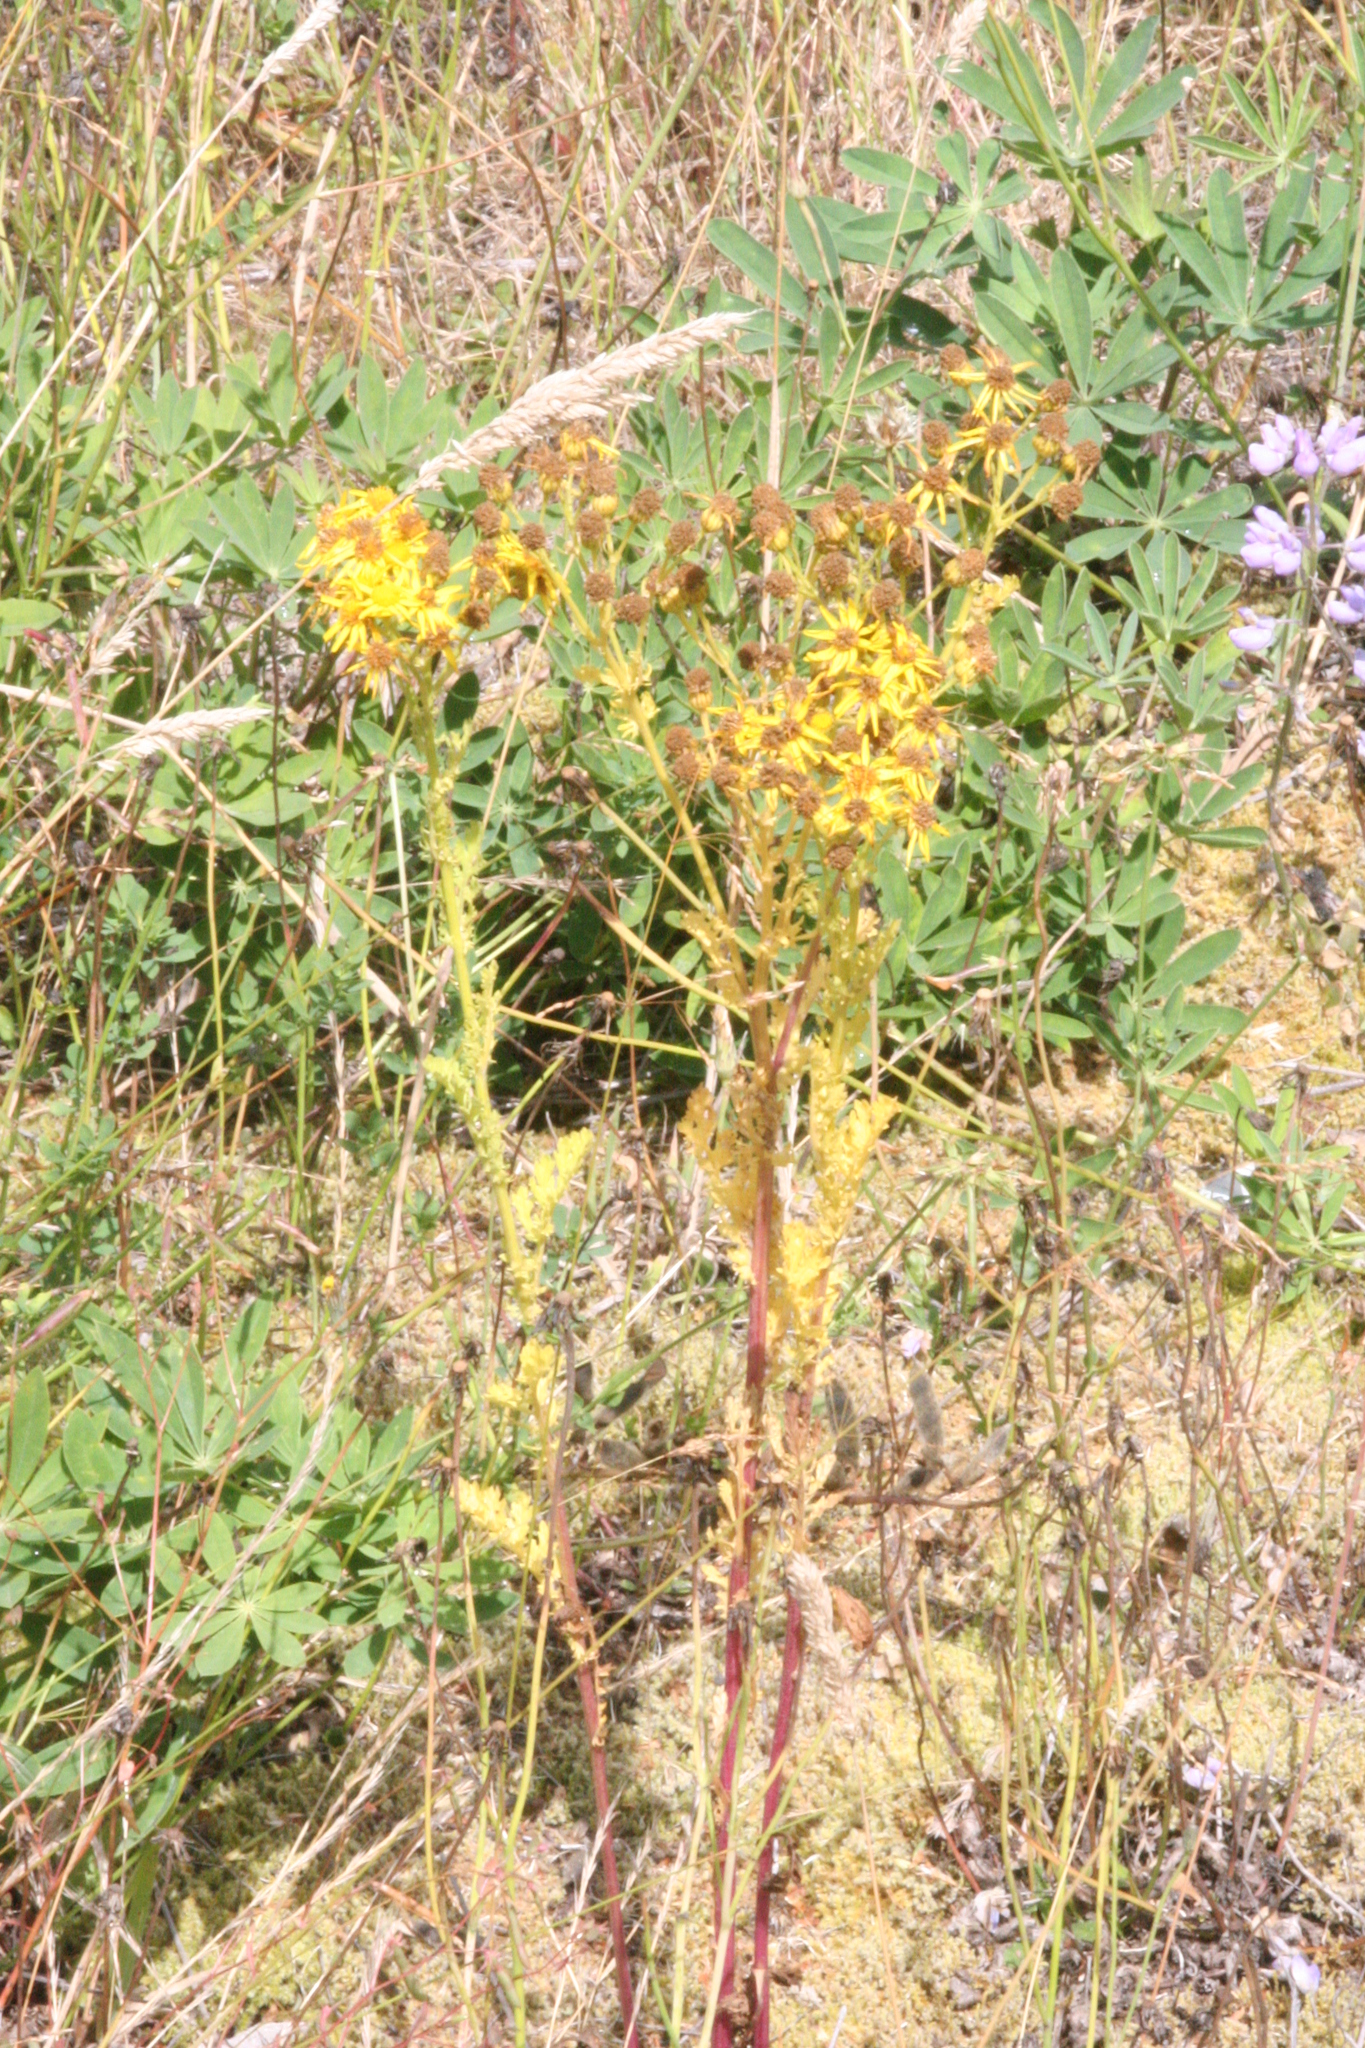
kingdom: Plantae
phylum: Tracheophyta
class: Magnoliopsida
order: Asterales
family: Asteraceae
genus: Jacobaea
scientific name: Jacobaea vulgaris
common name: Stinking willie
